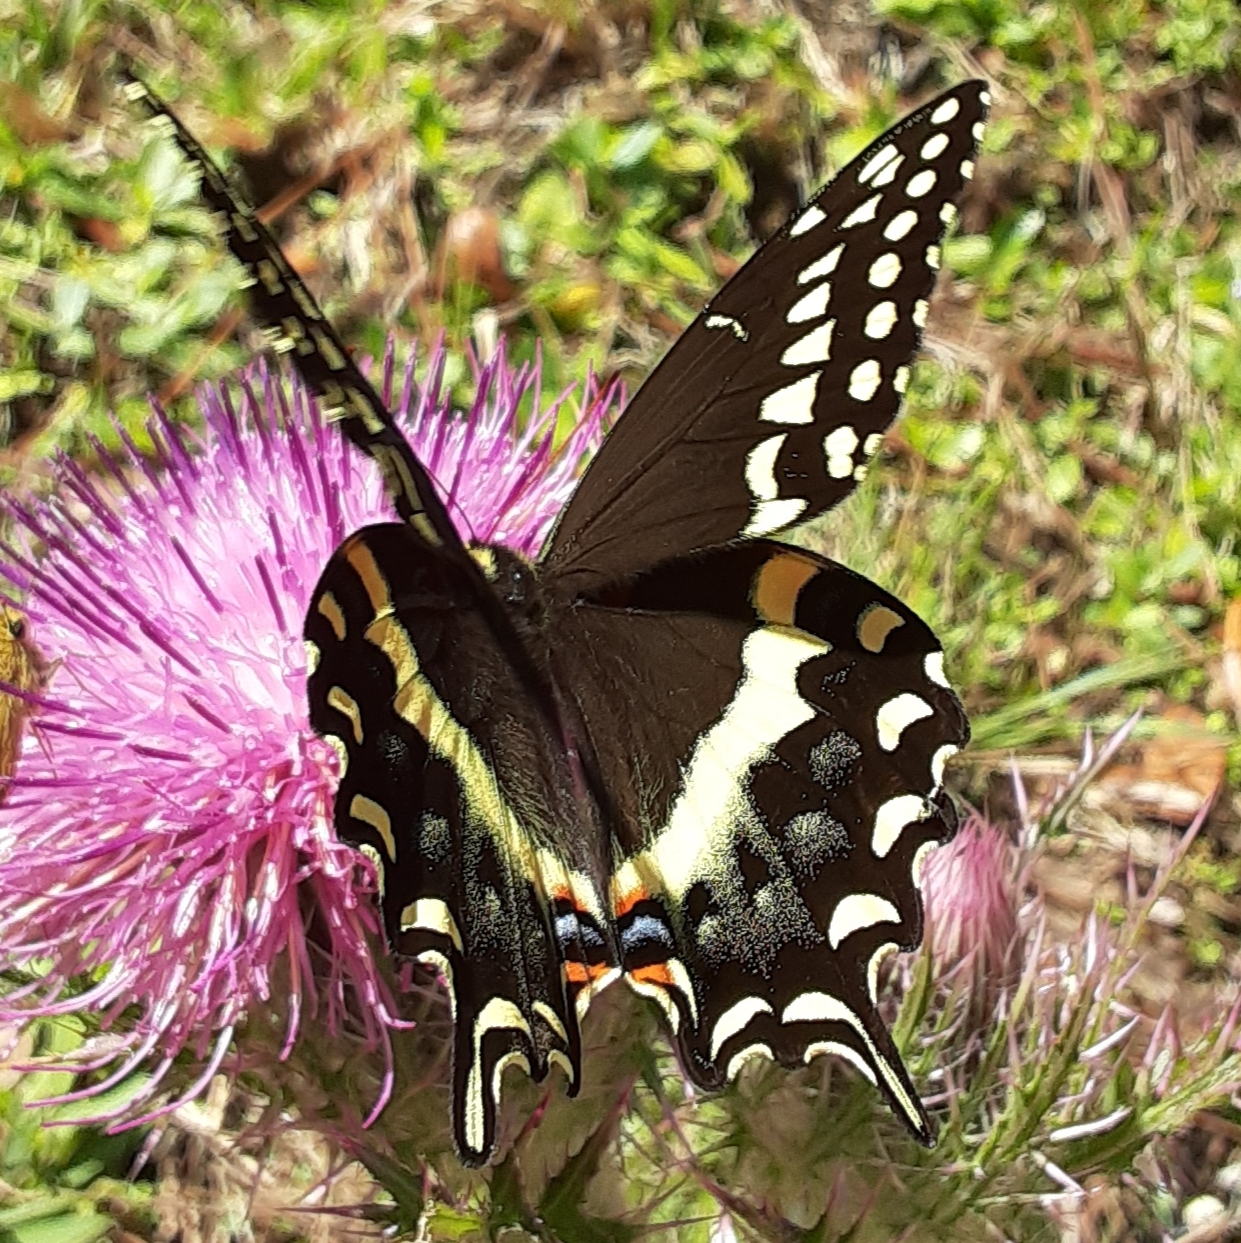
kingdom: Animalia
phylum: Arthropoda
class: Insecta
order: Lepidoptera
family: Papilionidae
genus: Papilio
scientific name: Papilio palamedes
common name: Palamedes swallowtail
